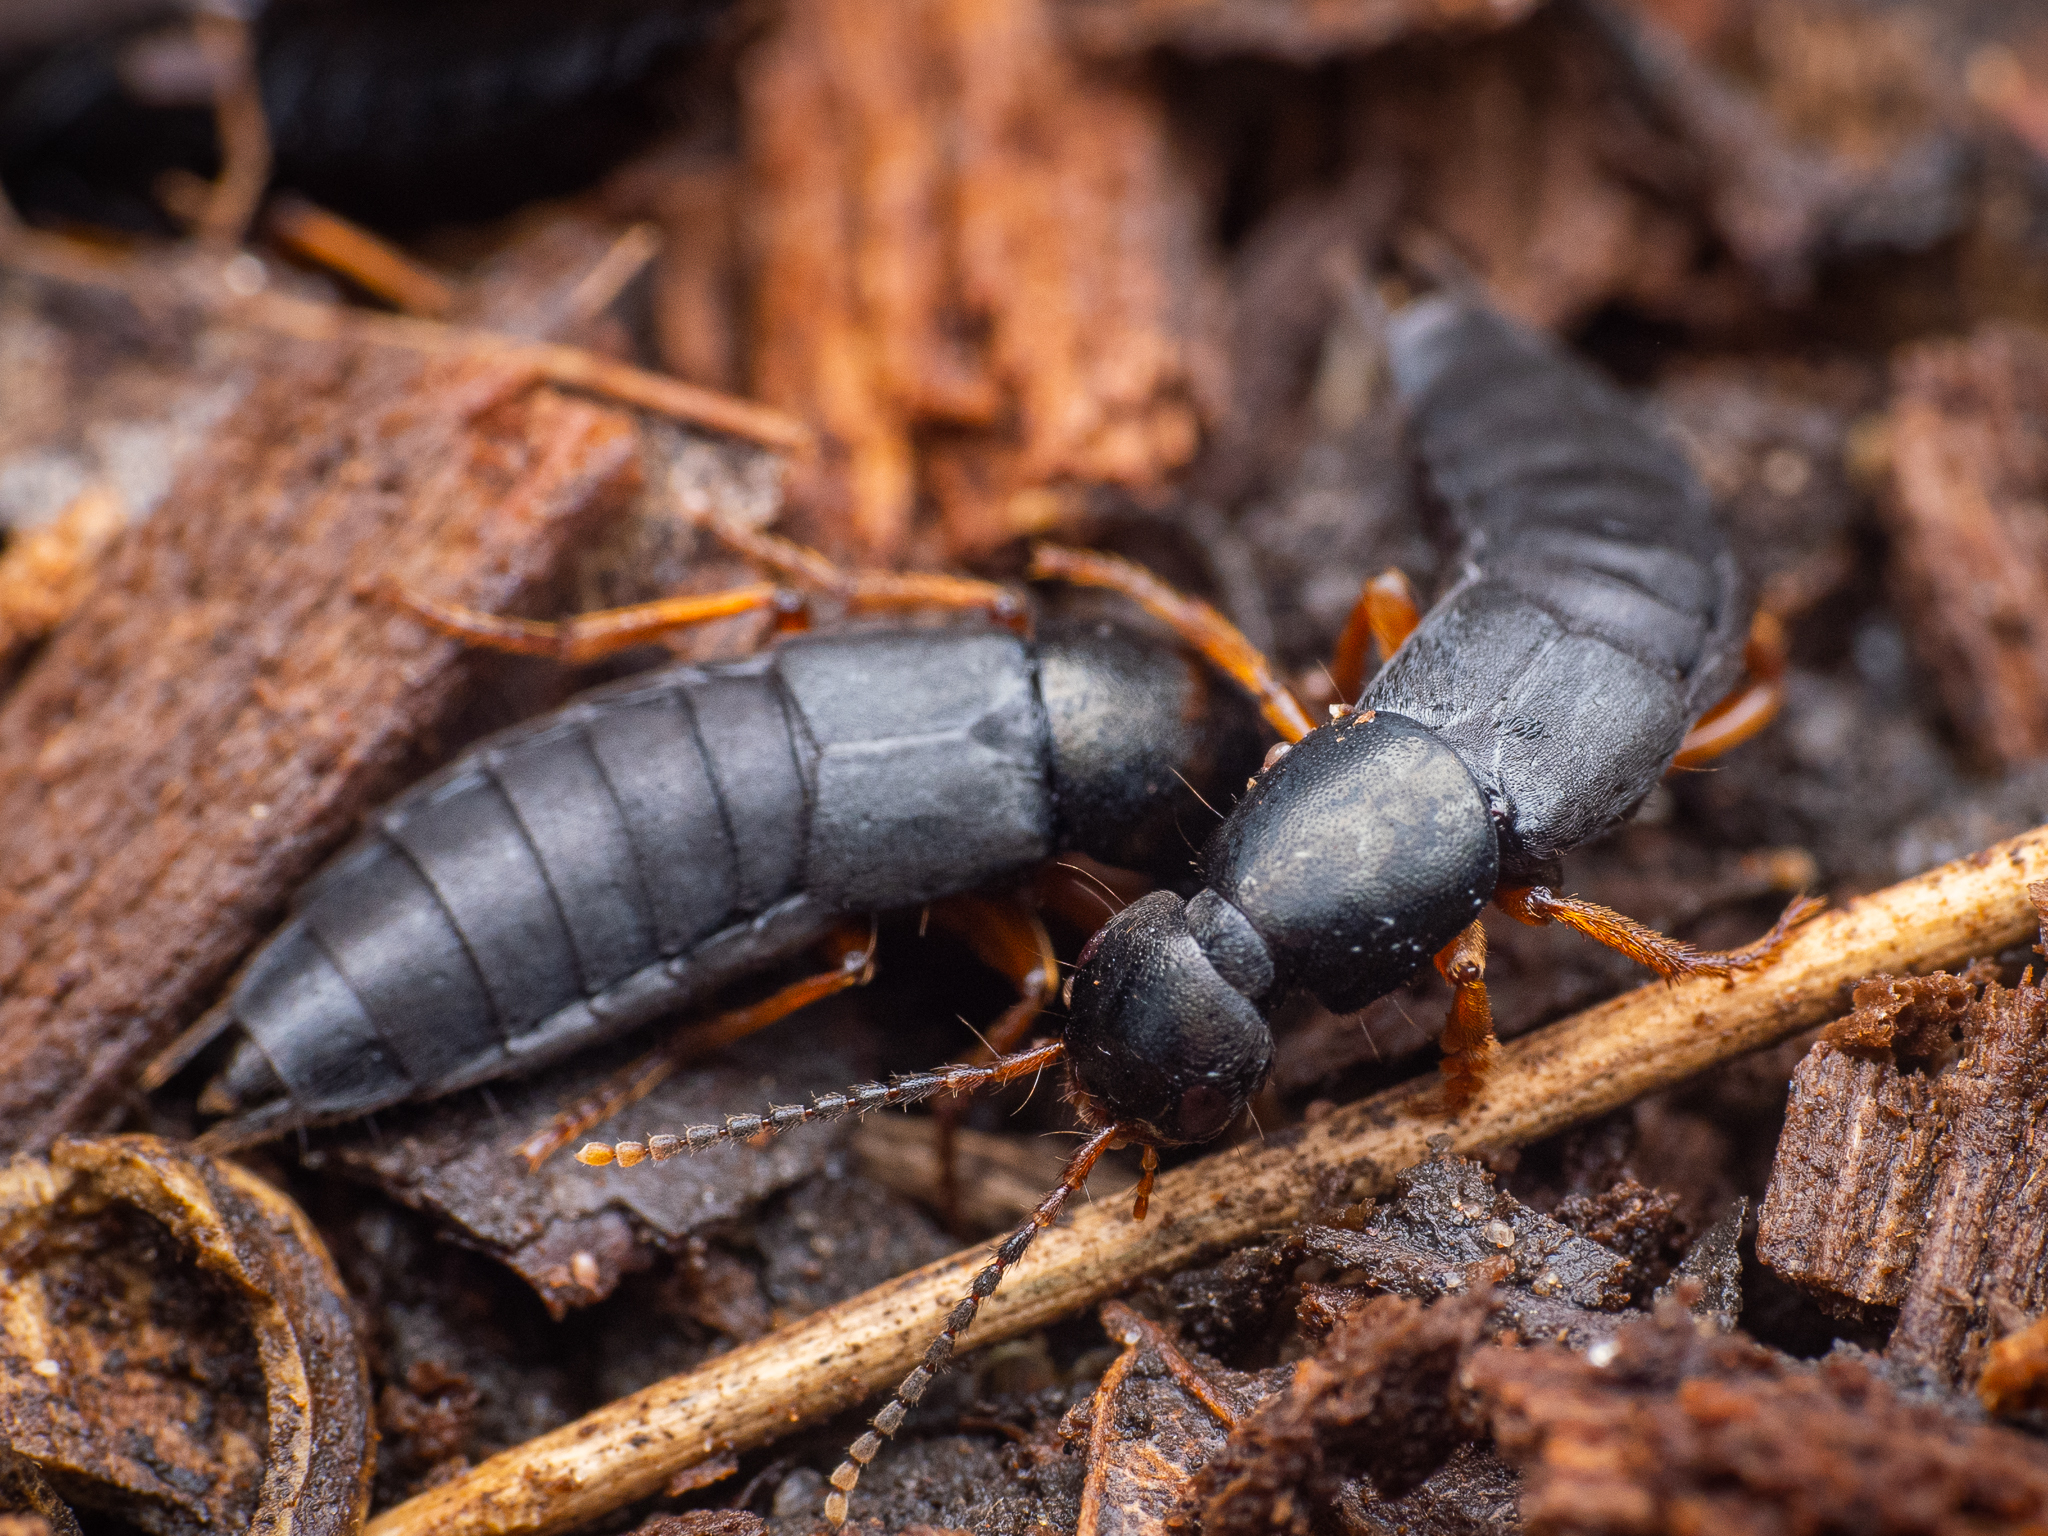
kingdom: Animalia
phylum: Arthropoda
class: Insecta
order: Coleoptera
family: Staphylinidae
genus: Ocypus
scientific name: Ocypus brunnipes
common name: Rove beetle
